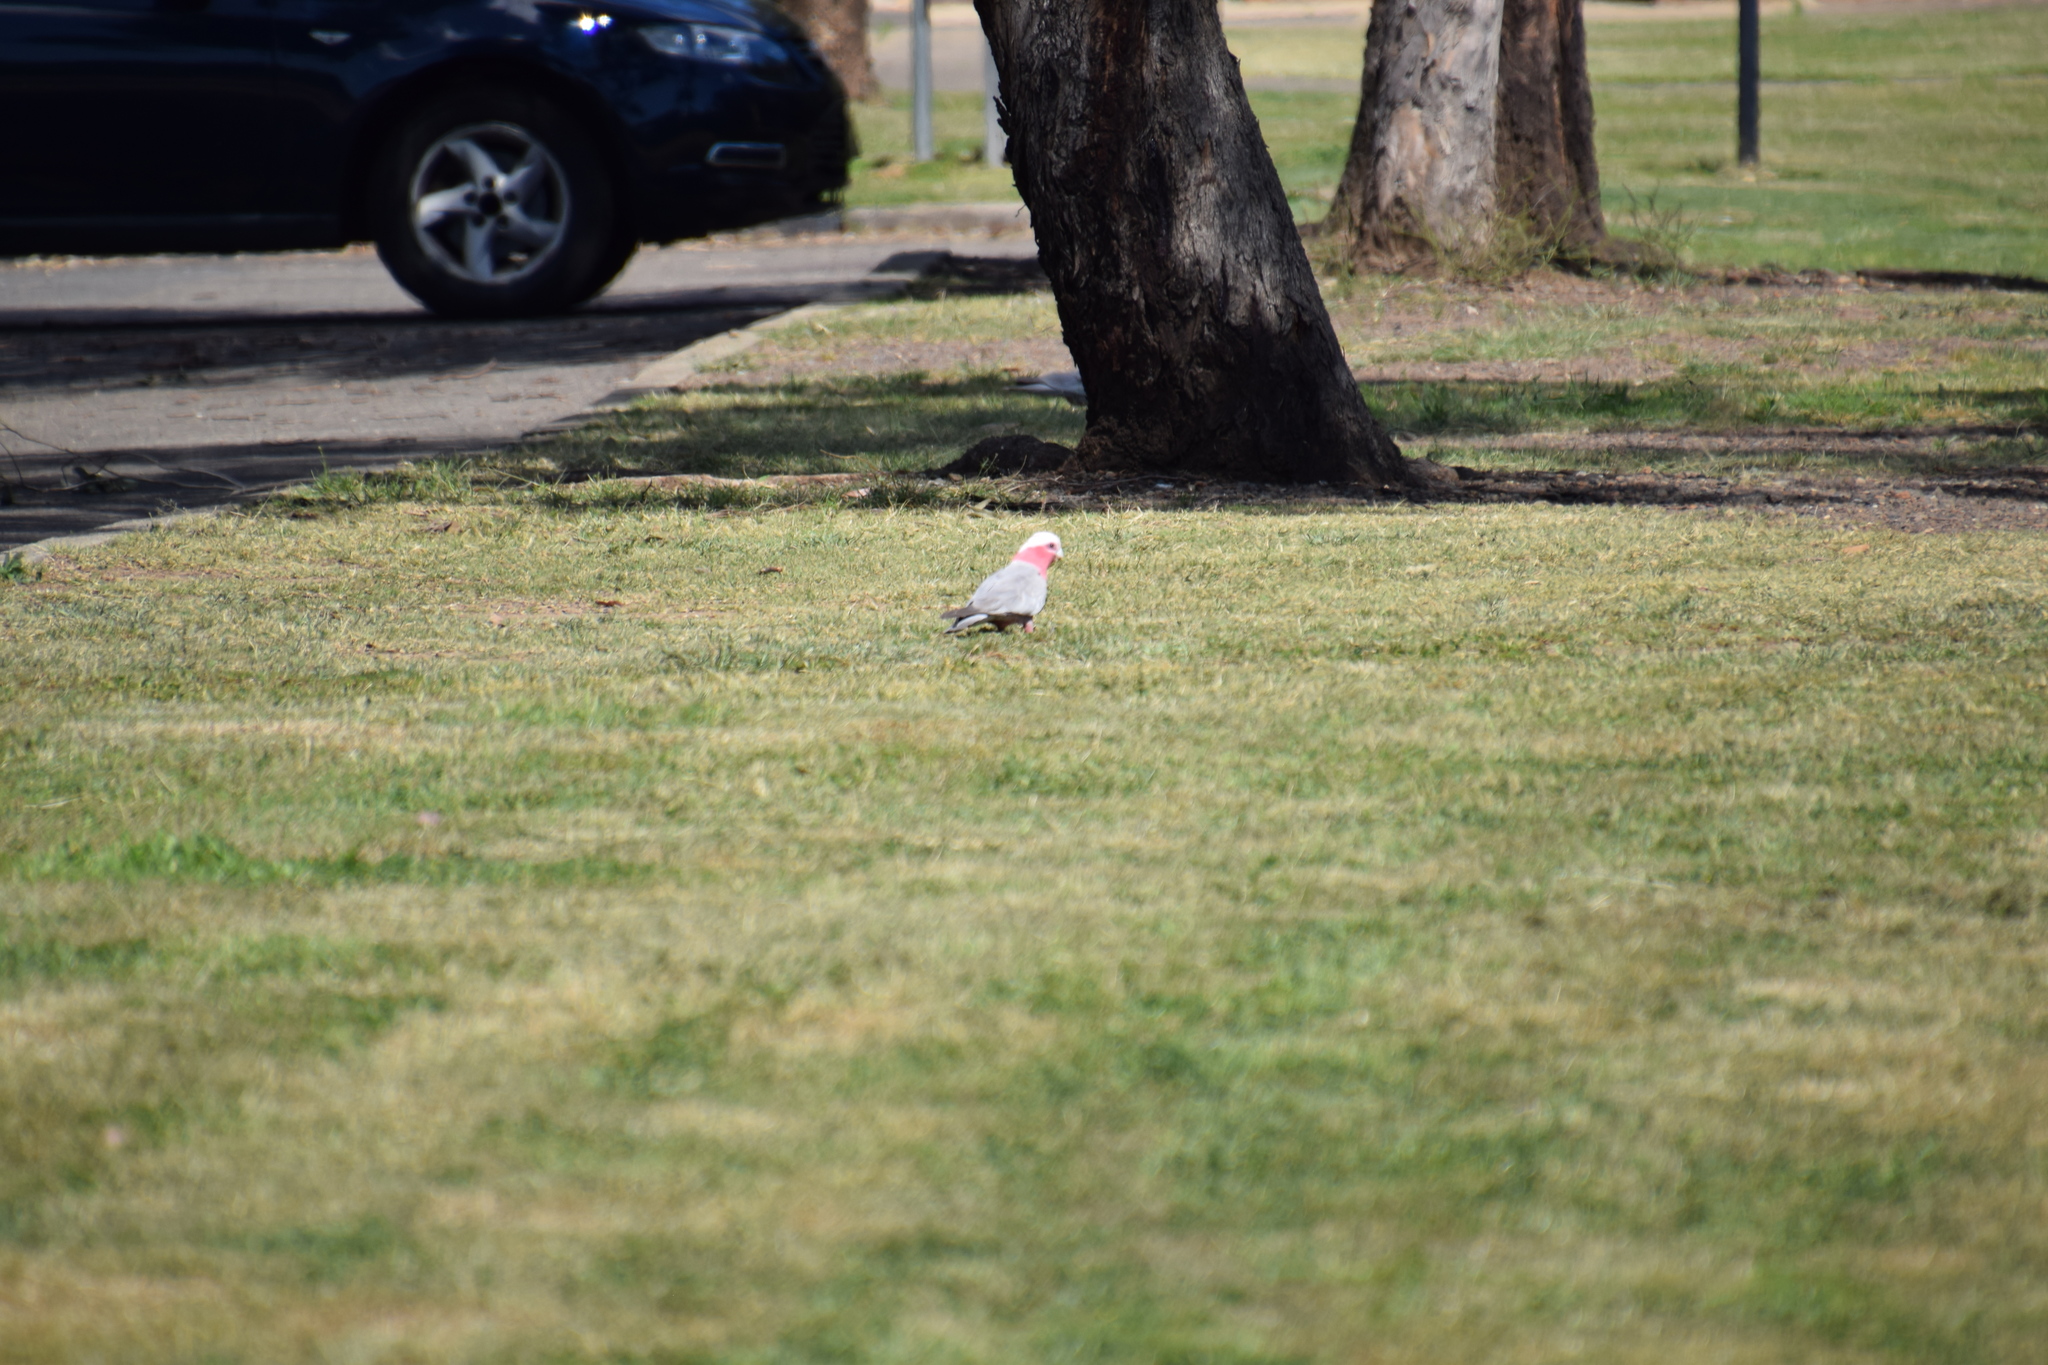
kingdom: Animalia
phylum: Chordata
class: Aves
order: Psittaciformes
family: Psittacidae
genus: Eolophus
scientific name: Eolophus roseicapilla
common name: Galah
